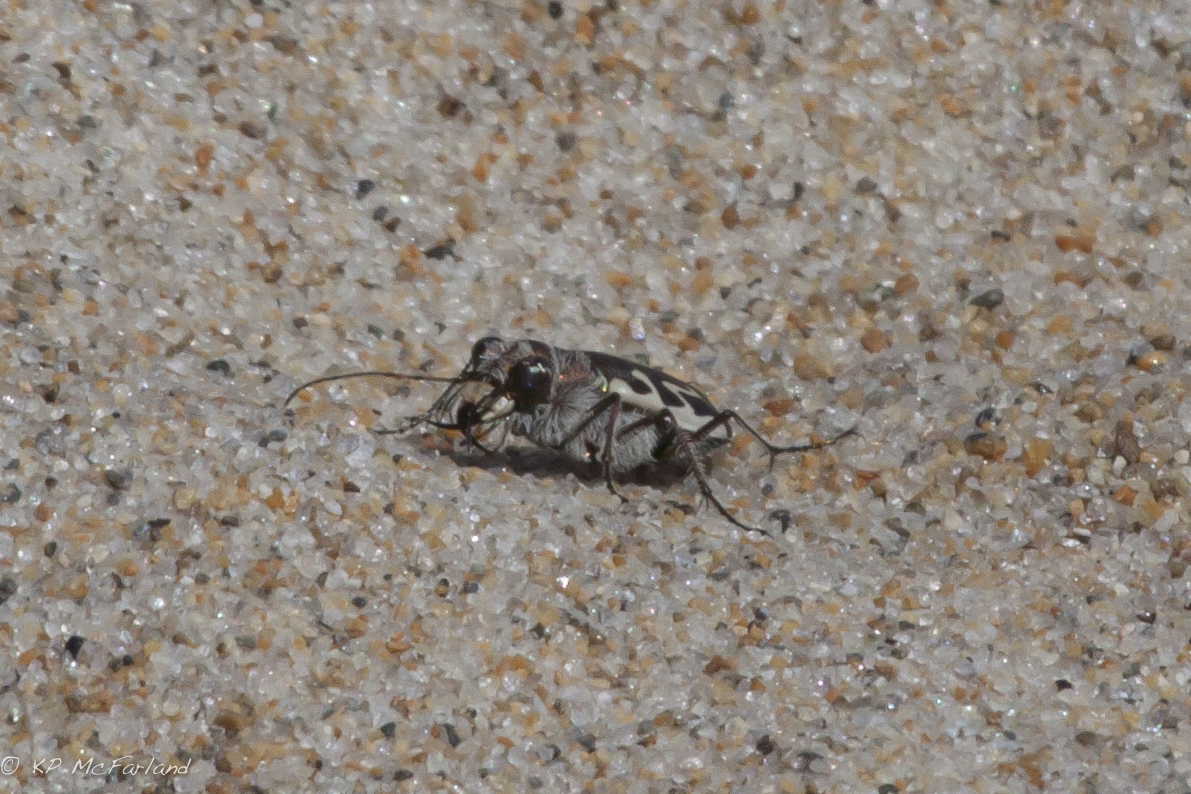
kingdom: Animalia
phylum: Arthropoda
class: Insecta
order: Coleoptera
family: Carabidae
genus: Cicindela
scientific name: Cicindela hirticollis
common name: Hairy-necked tiger beetle
